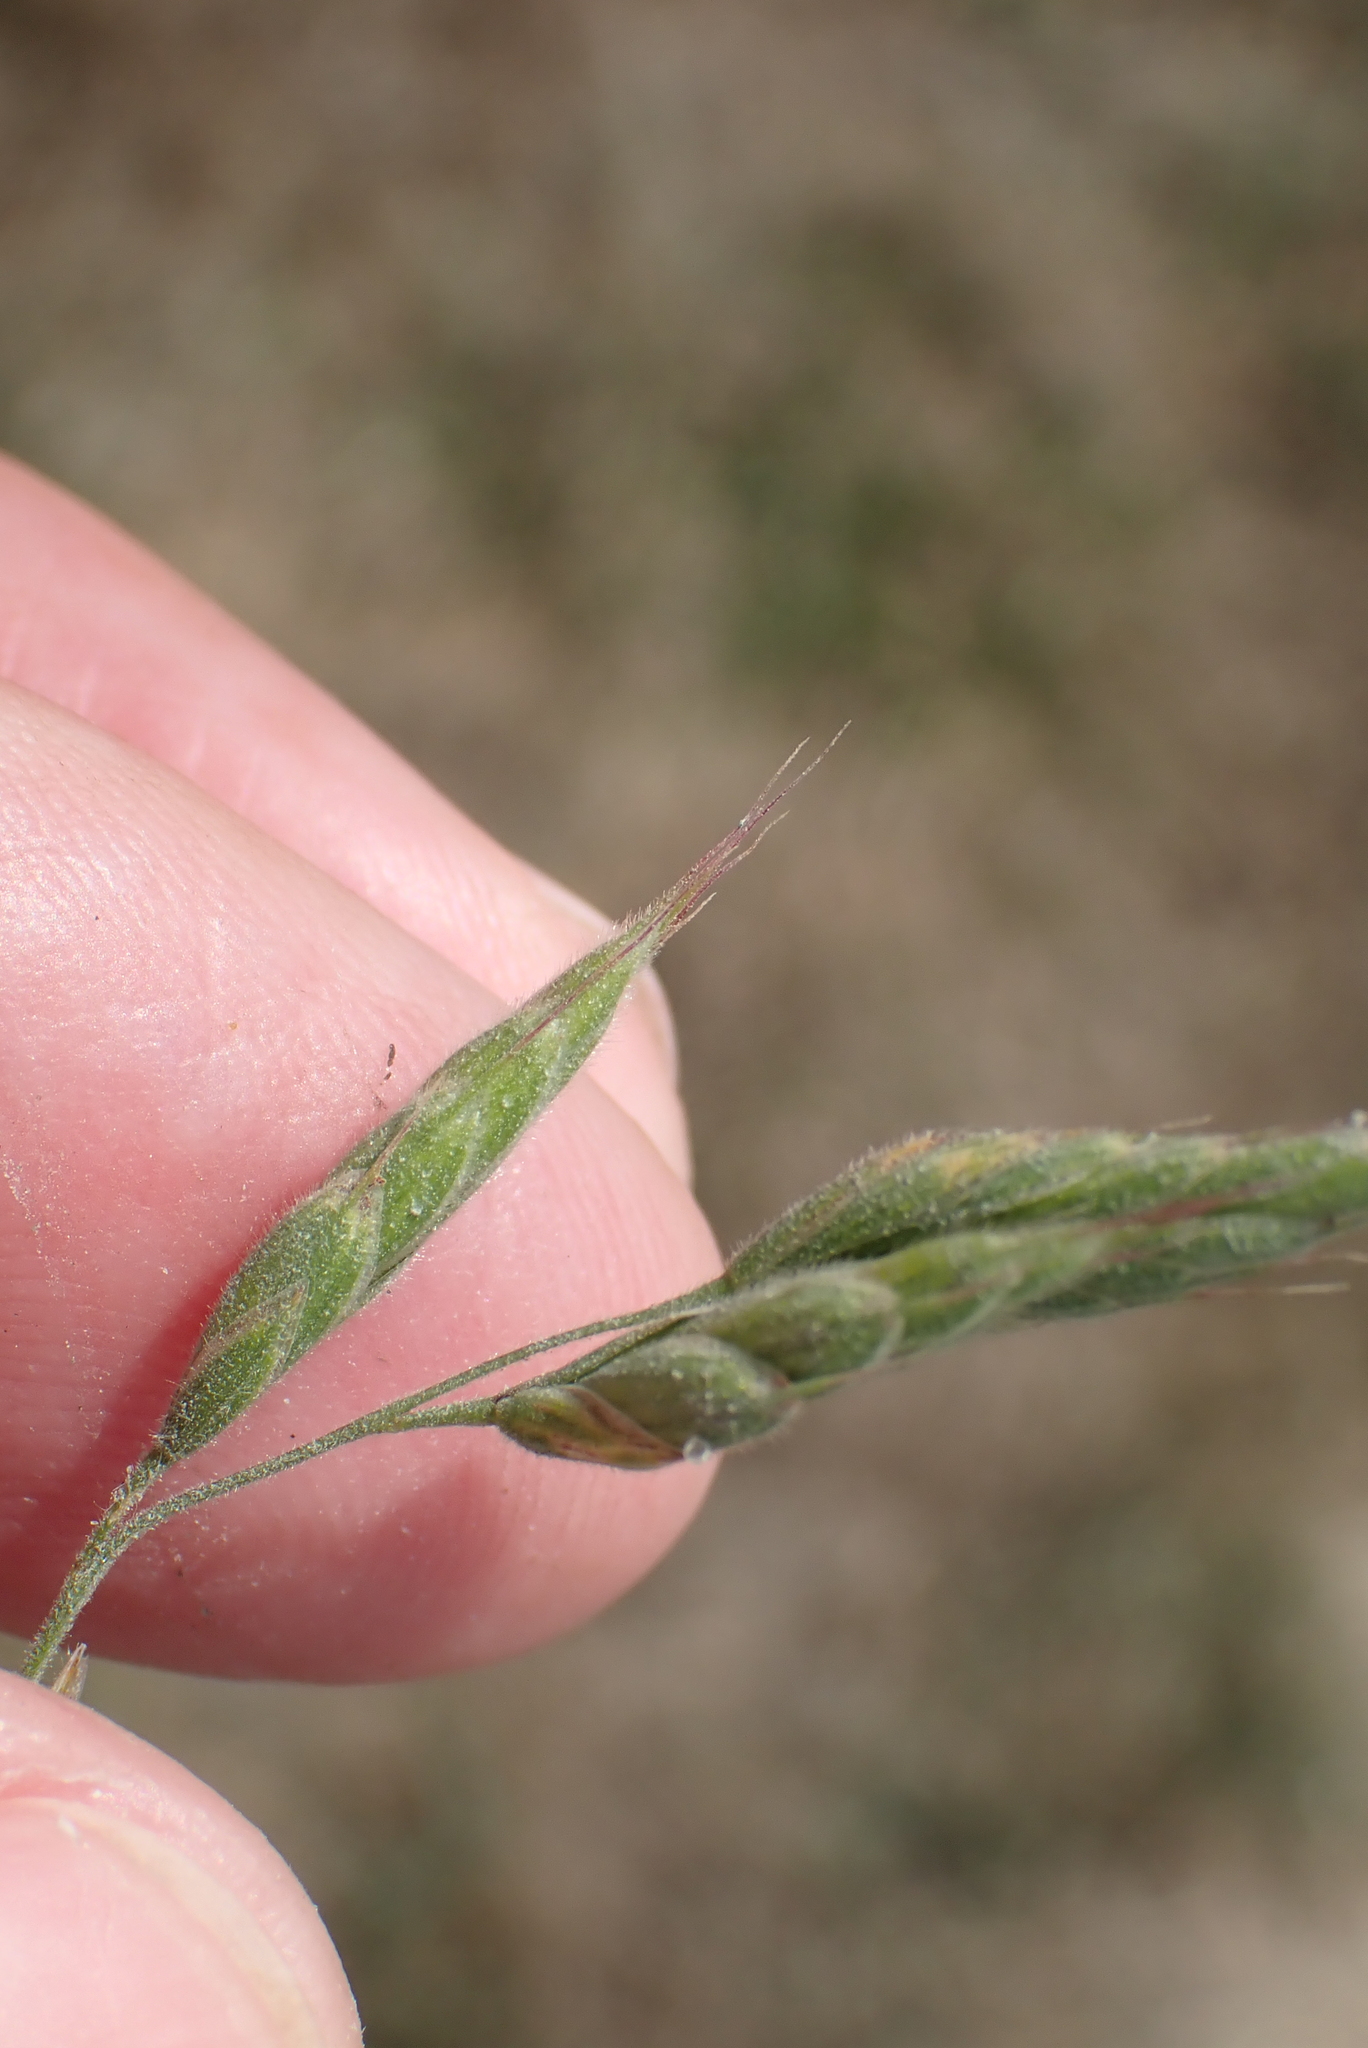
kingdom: Plantae
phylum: Tracheophyta
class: Liliopsida
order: Poales
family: Poaceae
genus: Bromus
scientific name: Bromus hordeaceus
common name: Soft brome
